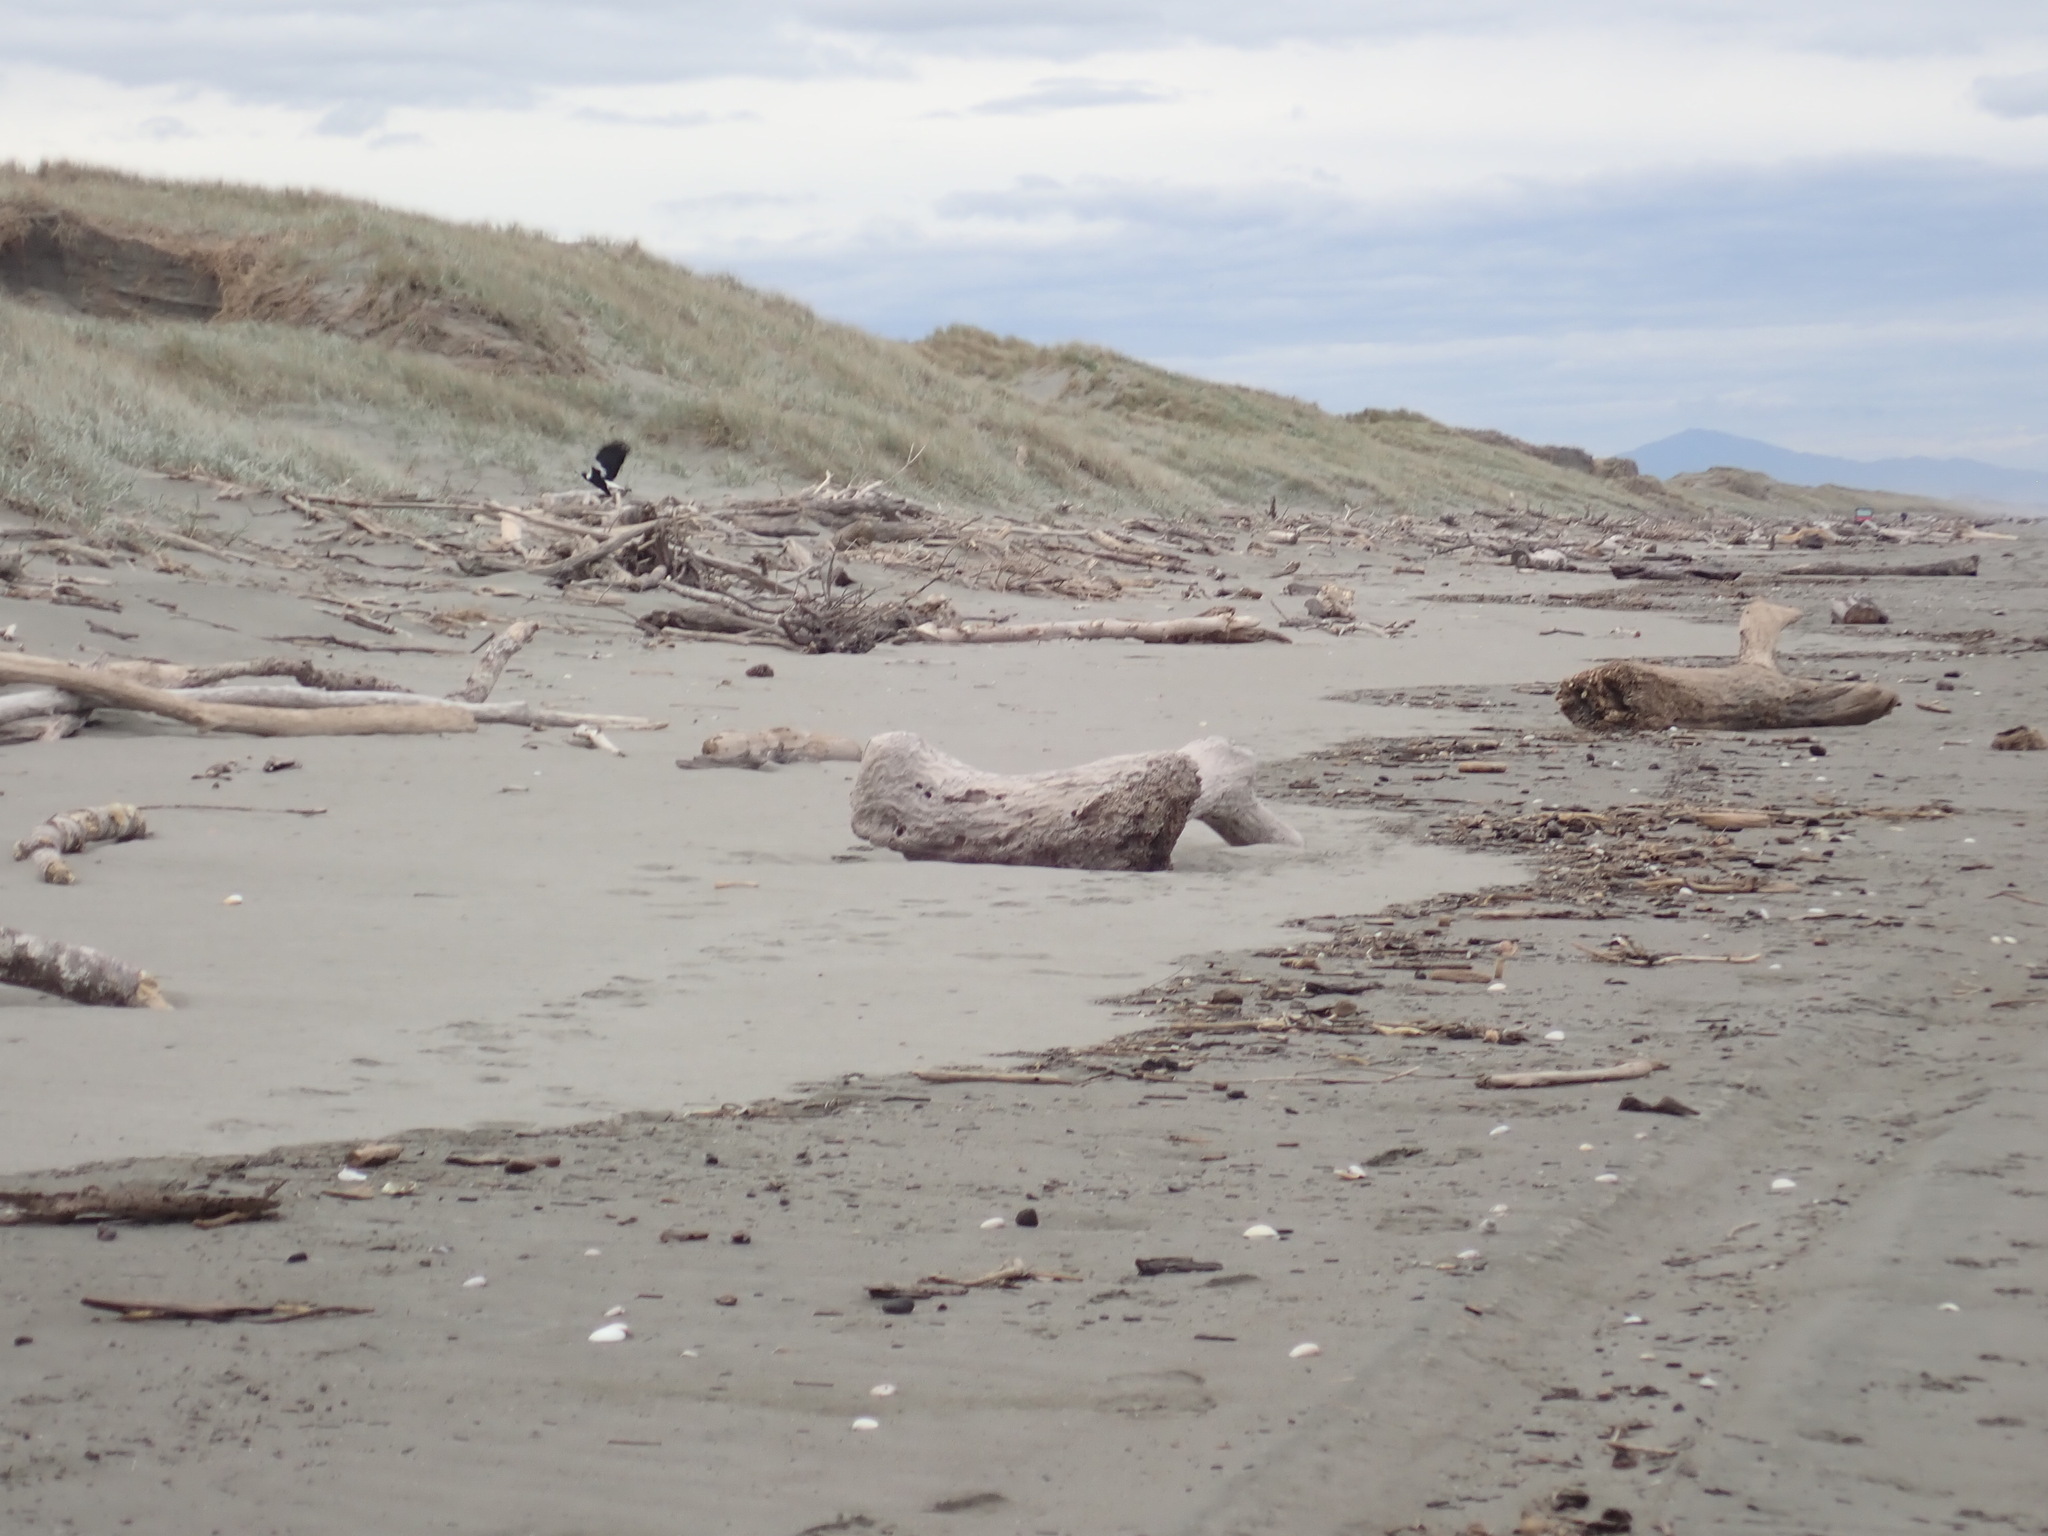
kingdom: Animalia
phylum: Chordata
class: Aves
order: Passeriformes
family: Cracticidae
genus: Gymnorhina
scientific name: Gymnorhina tibicen
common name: Australian magpie
